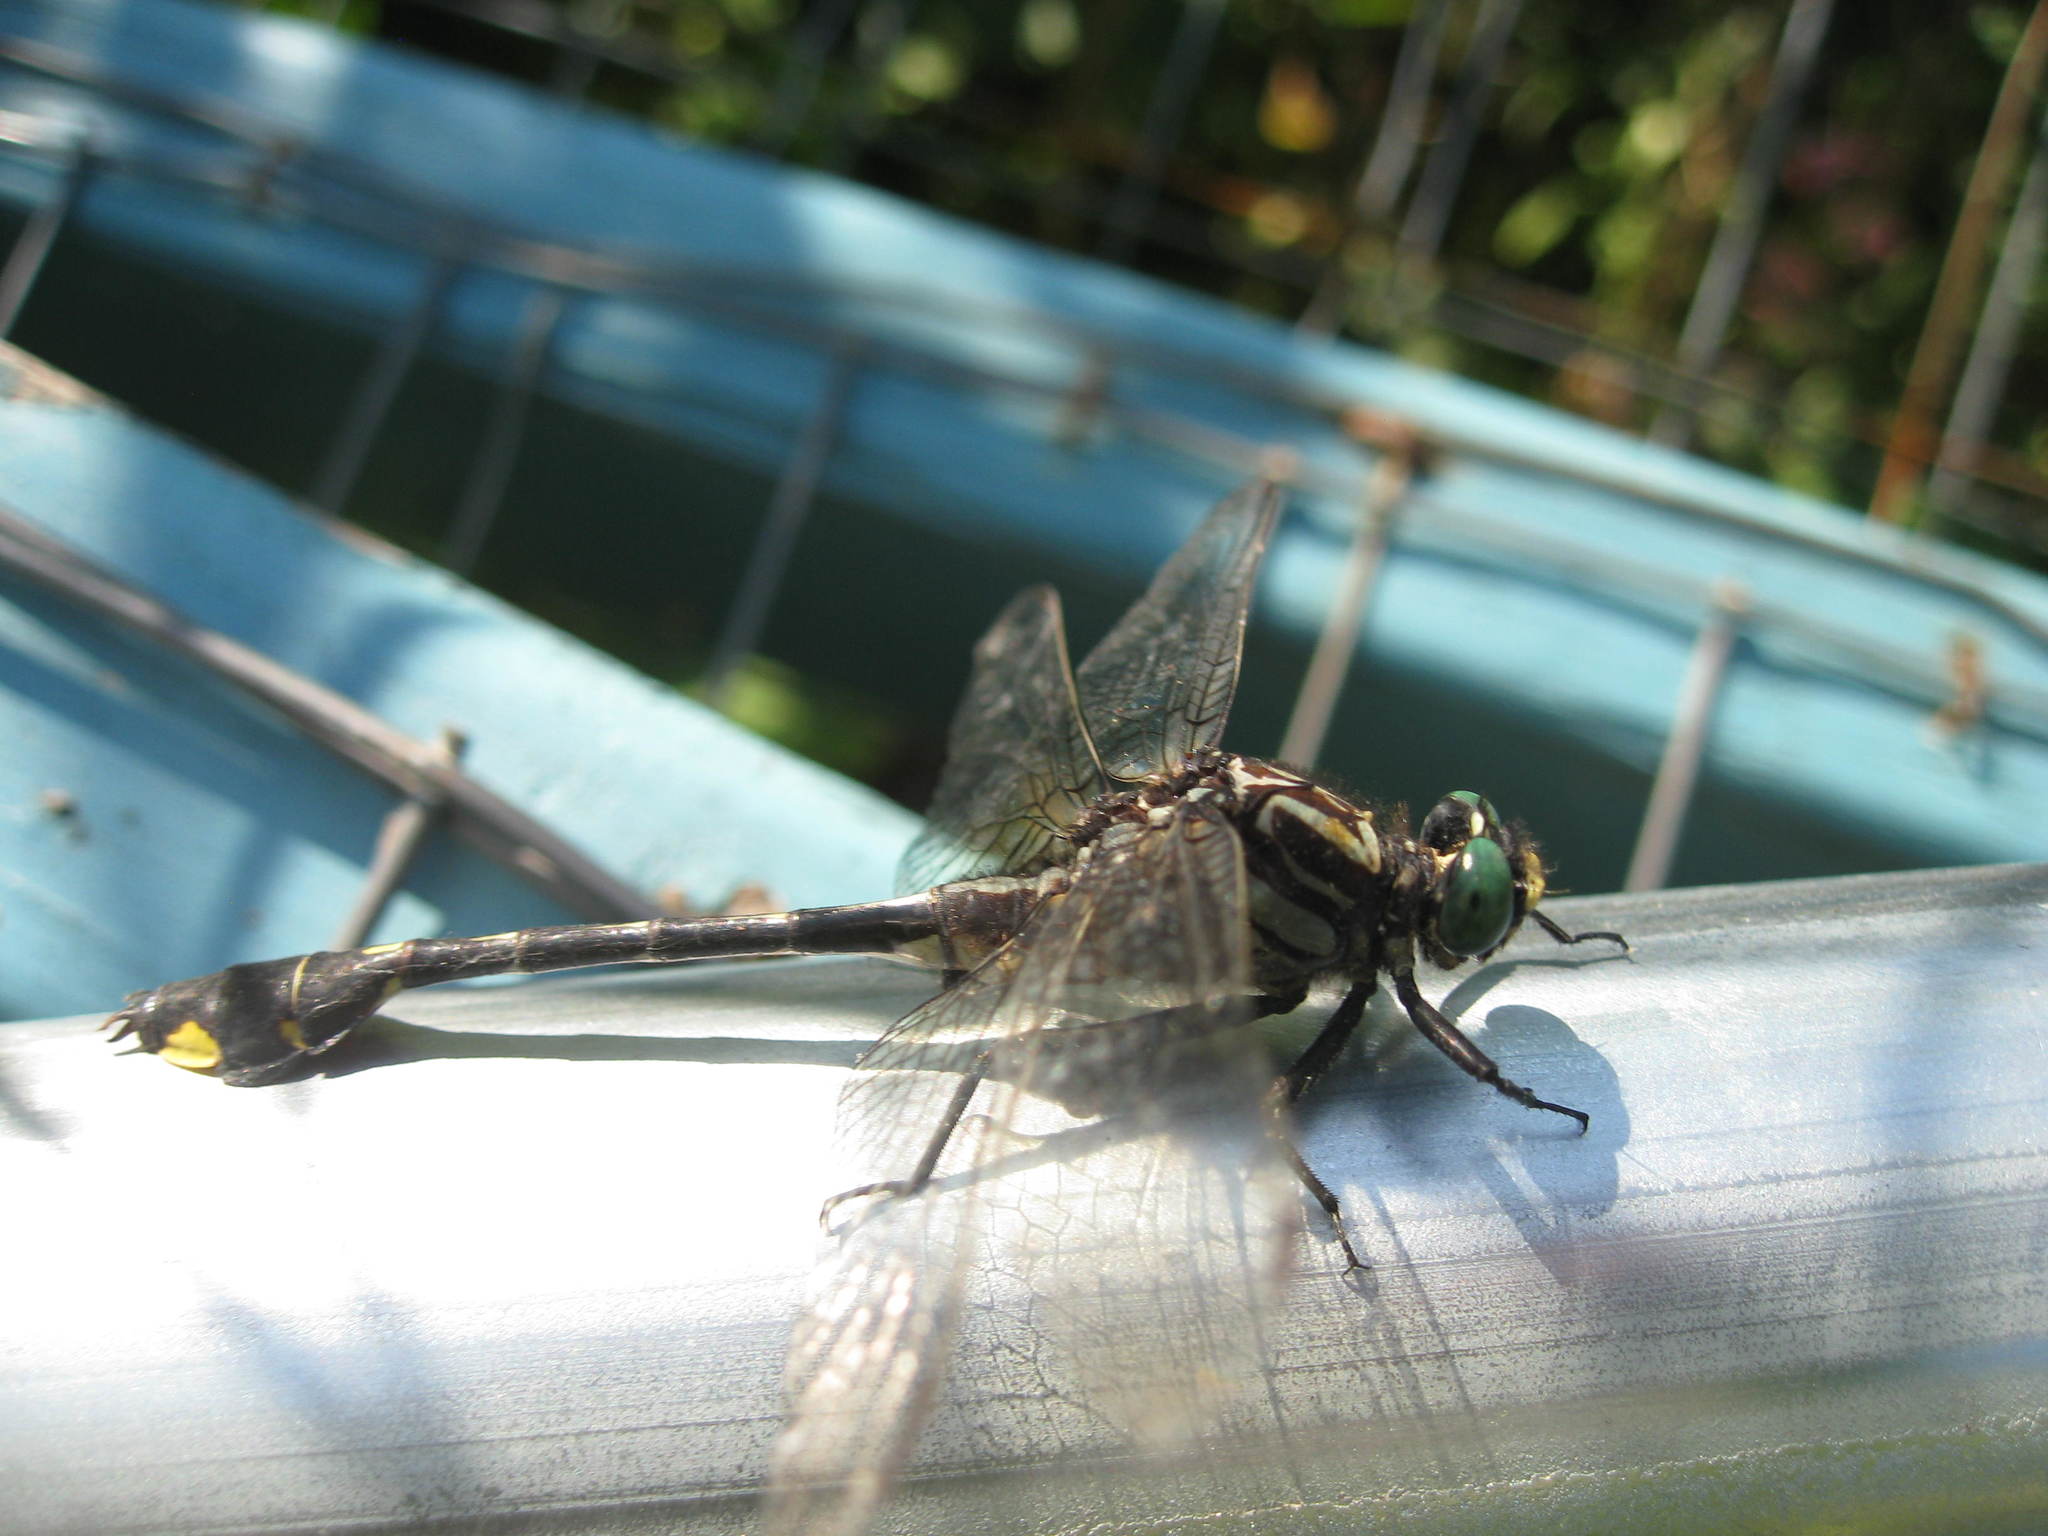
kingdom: Animalia
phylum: Arthropoda
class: Insecta
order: Odonata
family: Gomphidae
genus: Gomphurus
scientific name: Gomphurus vastus
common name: Cobra clubtail
